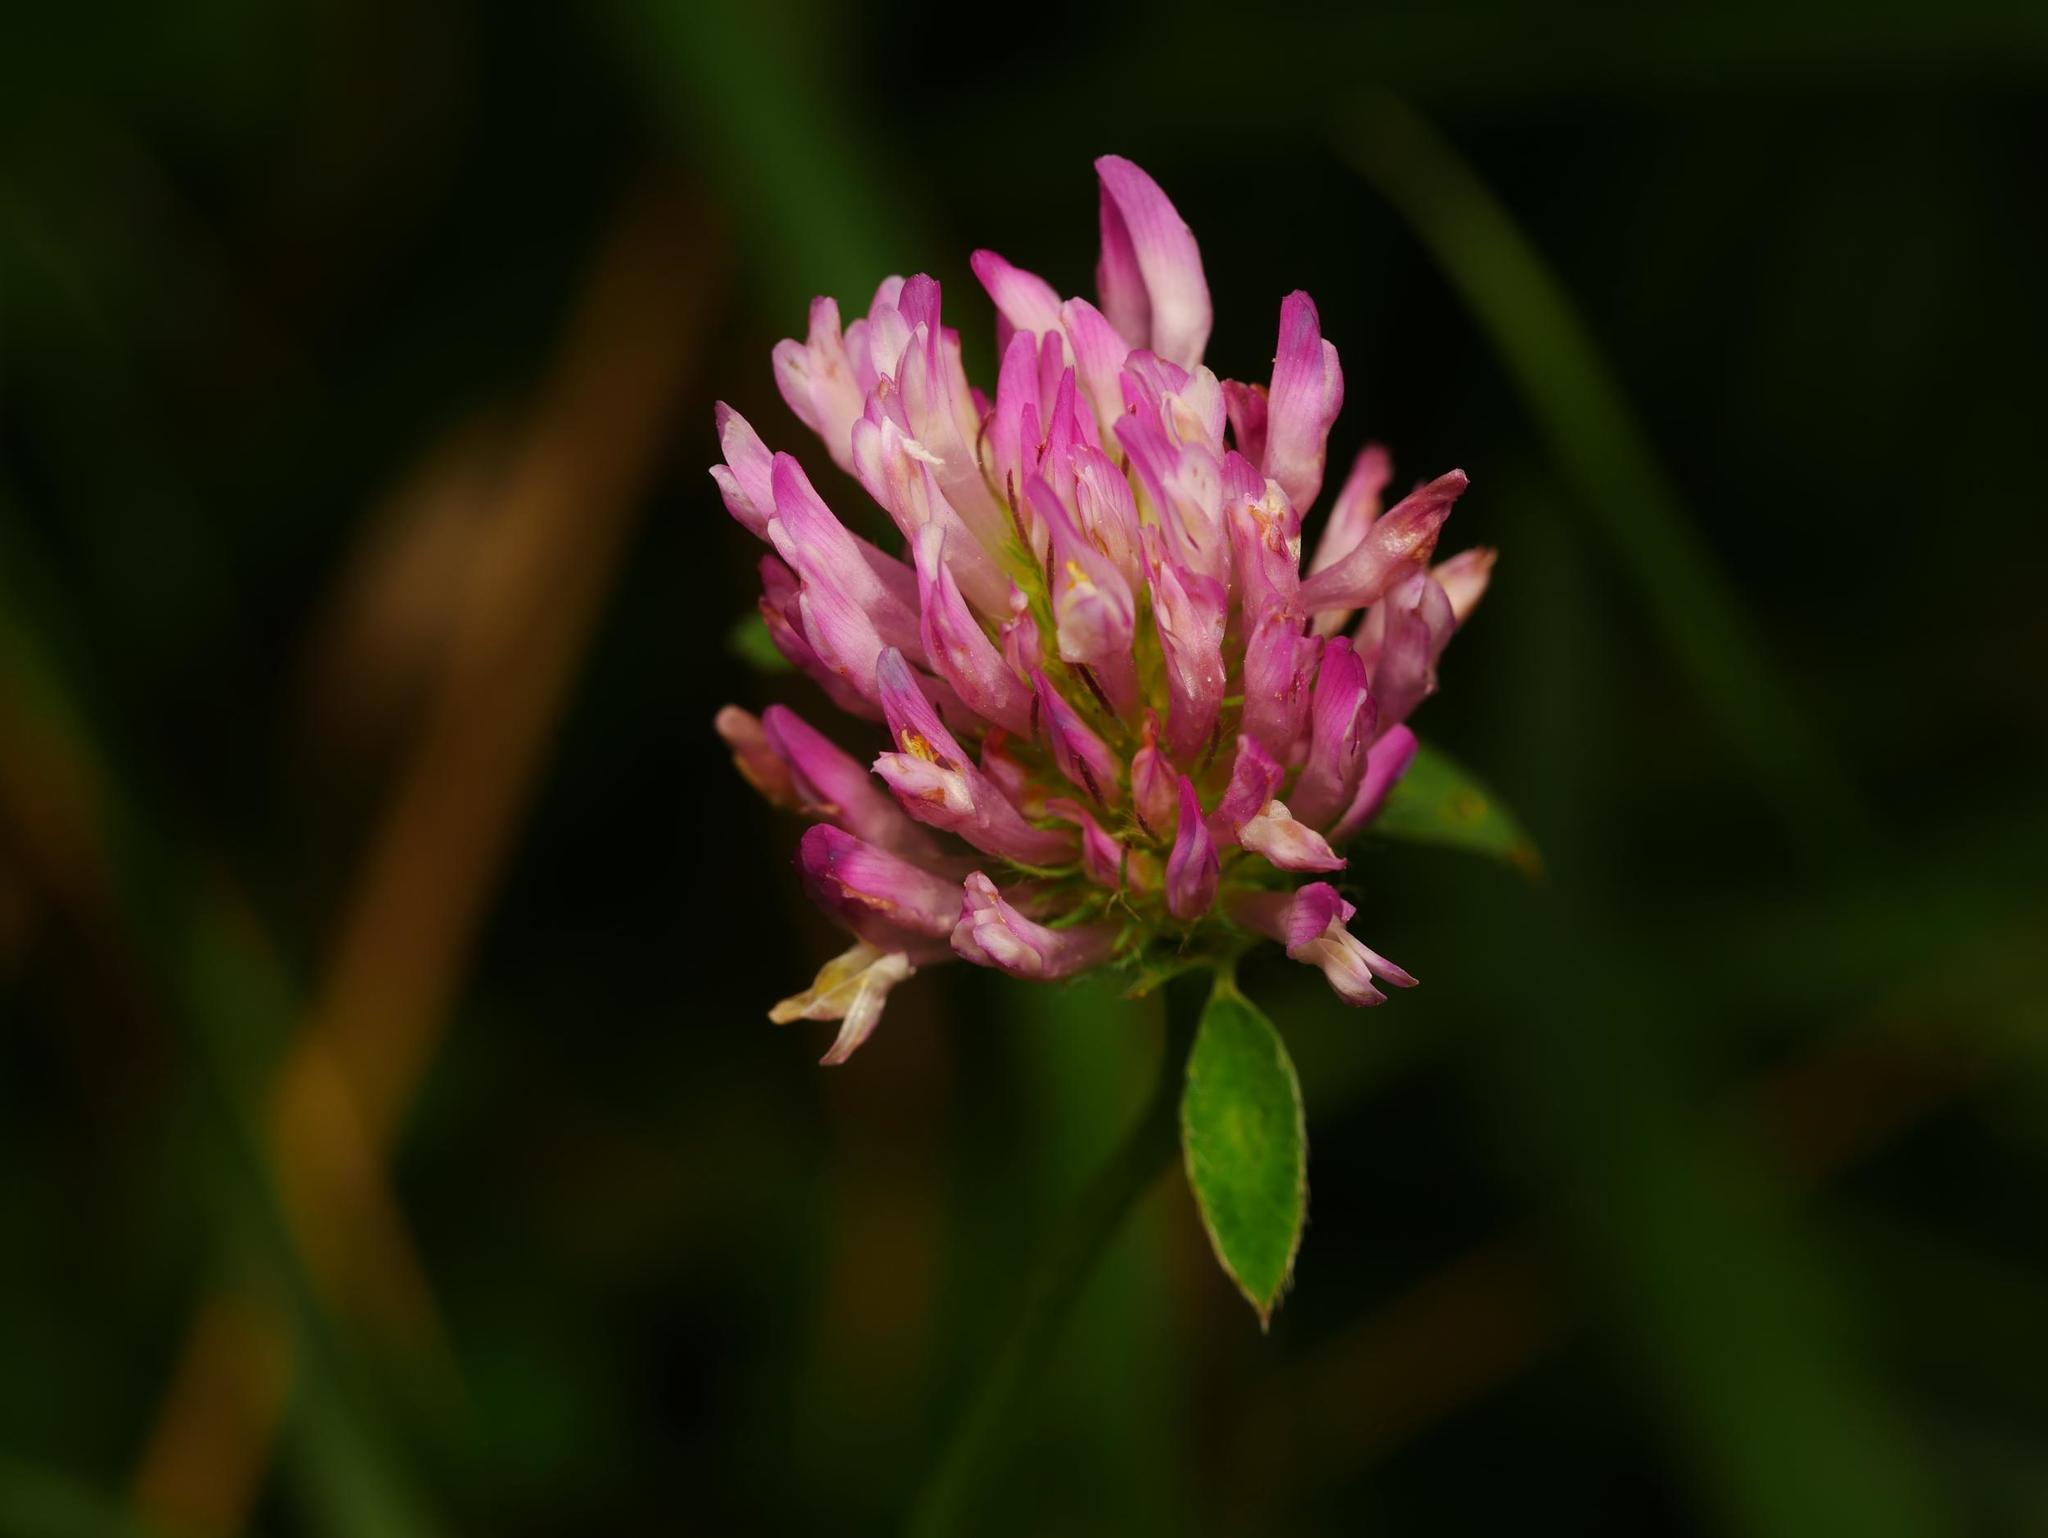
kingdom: Plantae
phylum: Tracheophyta
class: Magnoliopsida
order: Fabales
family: Fabaceae
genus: Trifolium
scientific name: Trifolium pratense
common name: Red clover
